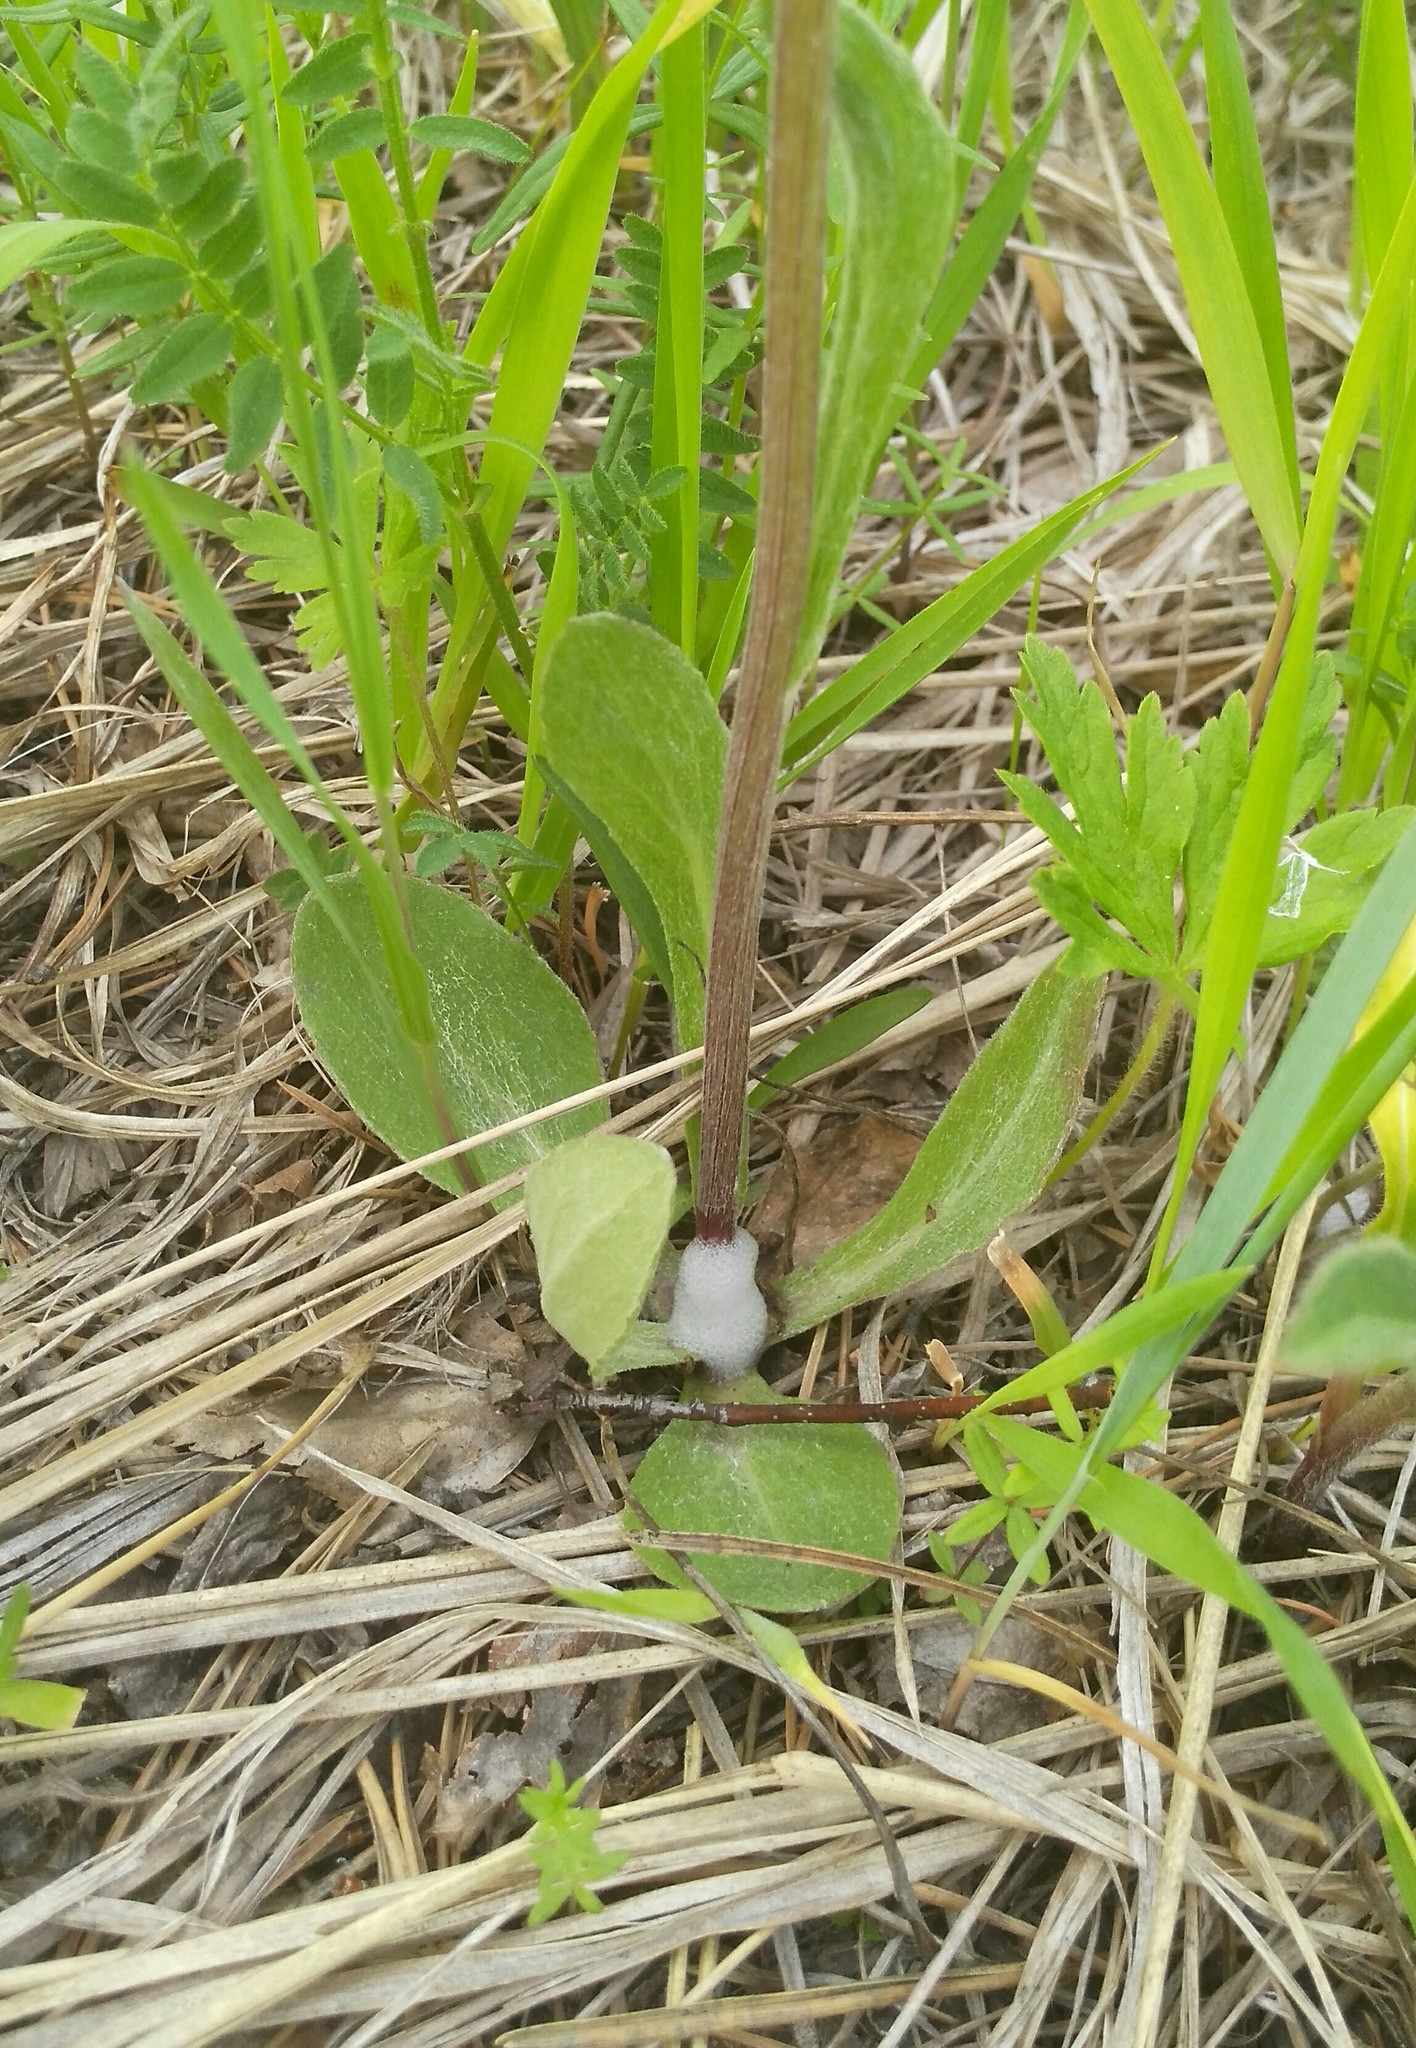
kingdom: Plantae
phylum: Tracheophyta
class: Magnoliopsida
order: Asterales
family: Asteraceae
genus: Tephroseris
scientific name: Tephroseris integrifolia
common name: Field fleawort
